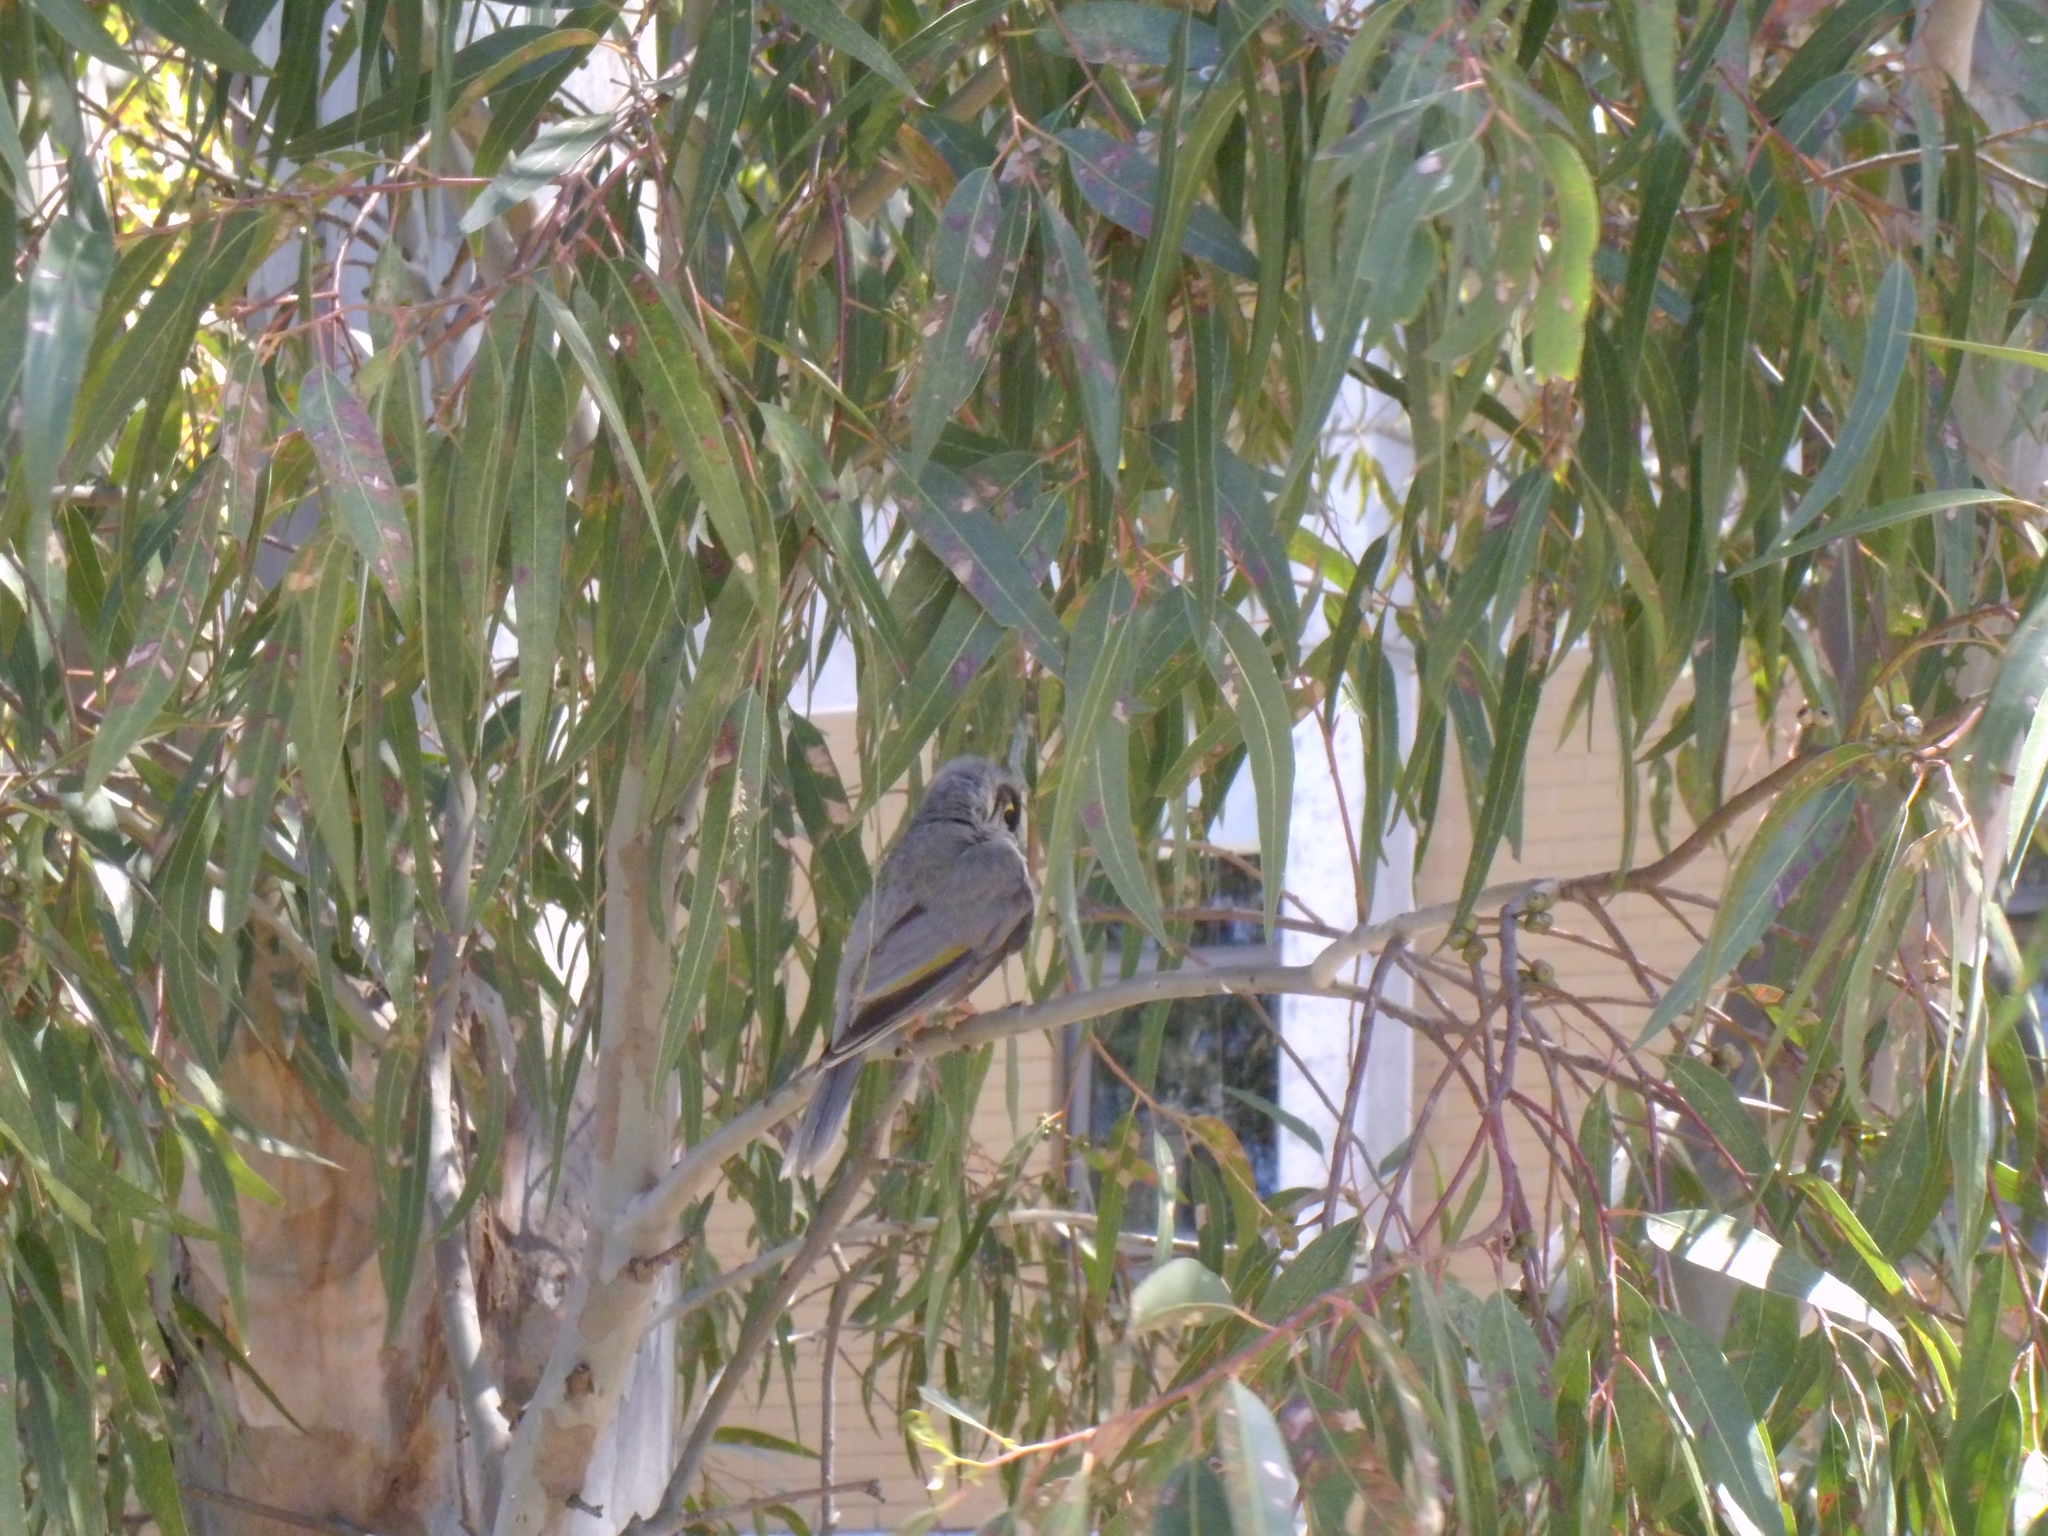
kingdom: Animalia
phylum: Chordata
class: Aves
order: Passeriformes
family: Meliphagidae
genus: Manorina
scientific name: Manorina melanocephala
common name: Noisy miner
